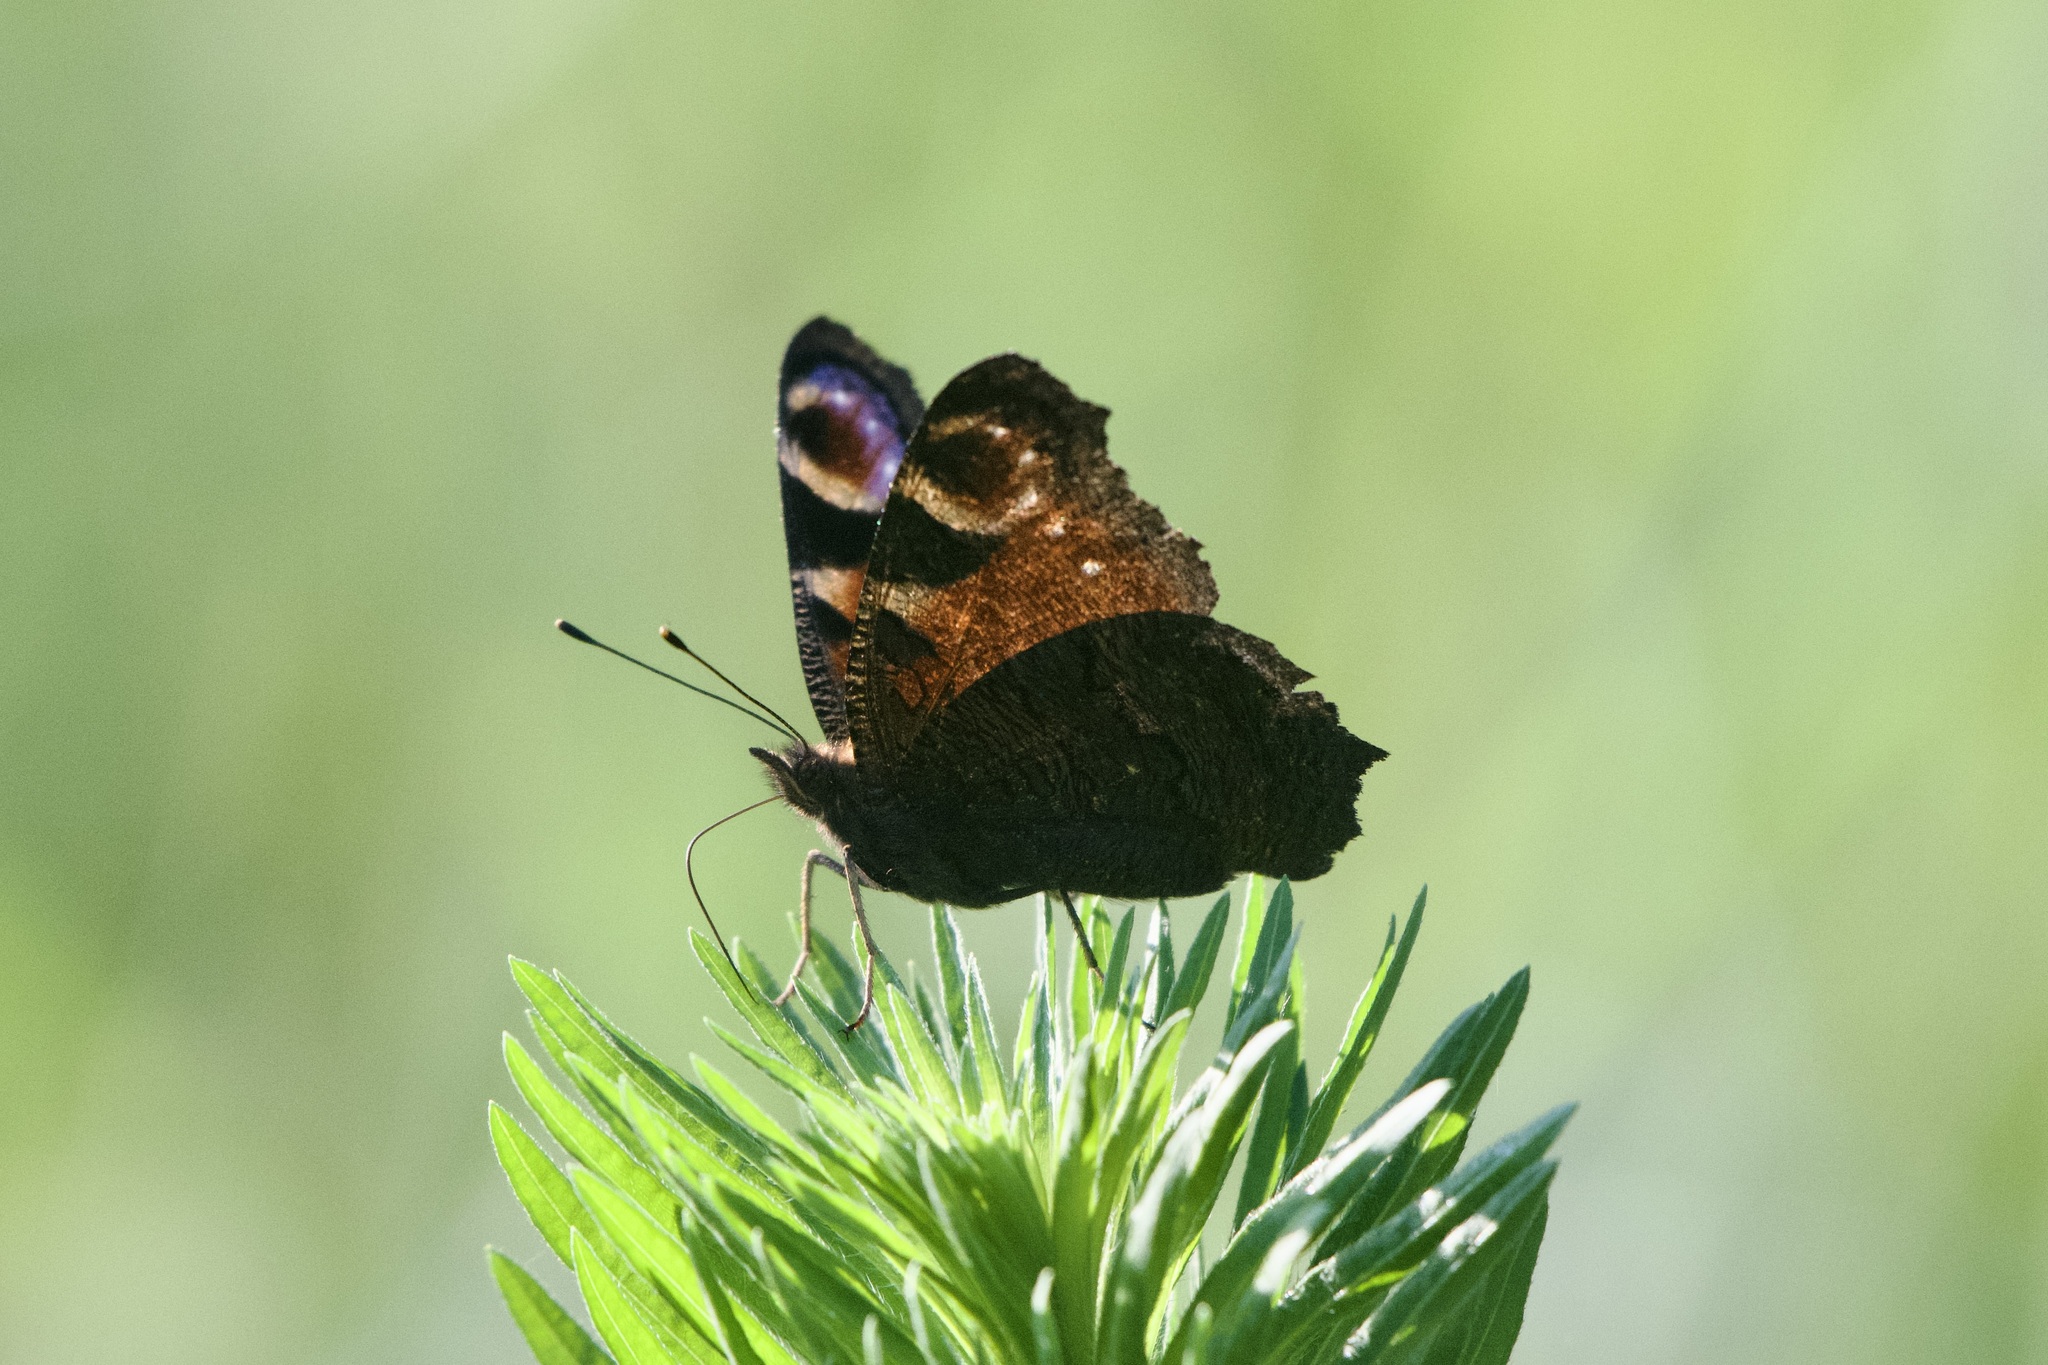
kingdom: Animalia
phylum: Arthropoda
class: Insecta
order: Lepidoptera
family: Nymphalidae
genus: Aglais
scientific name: Aglais io
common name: Peacock
